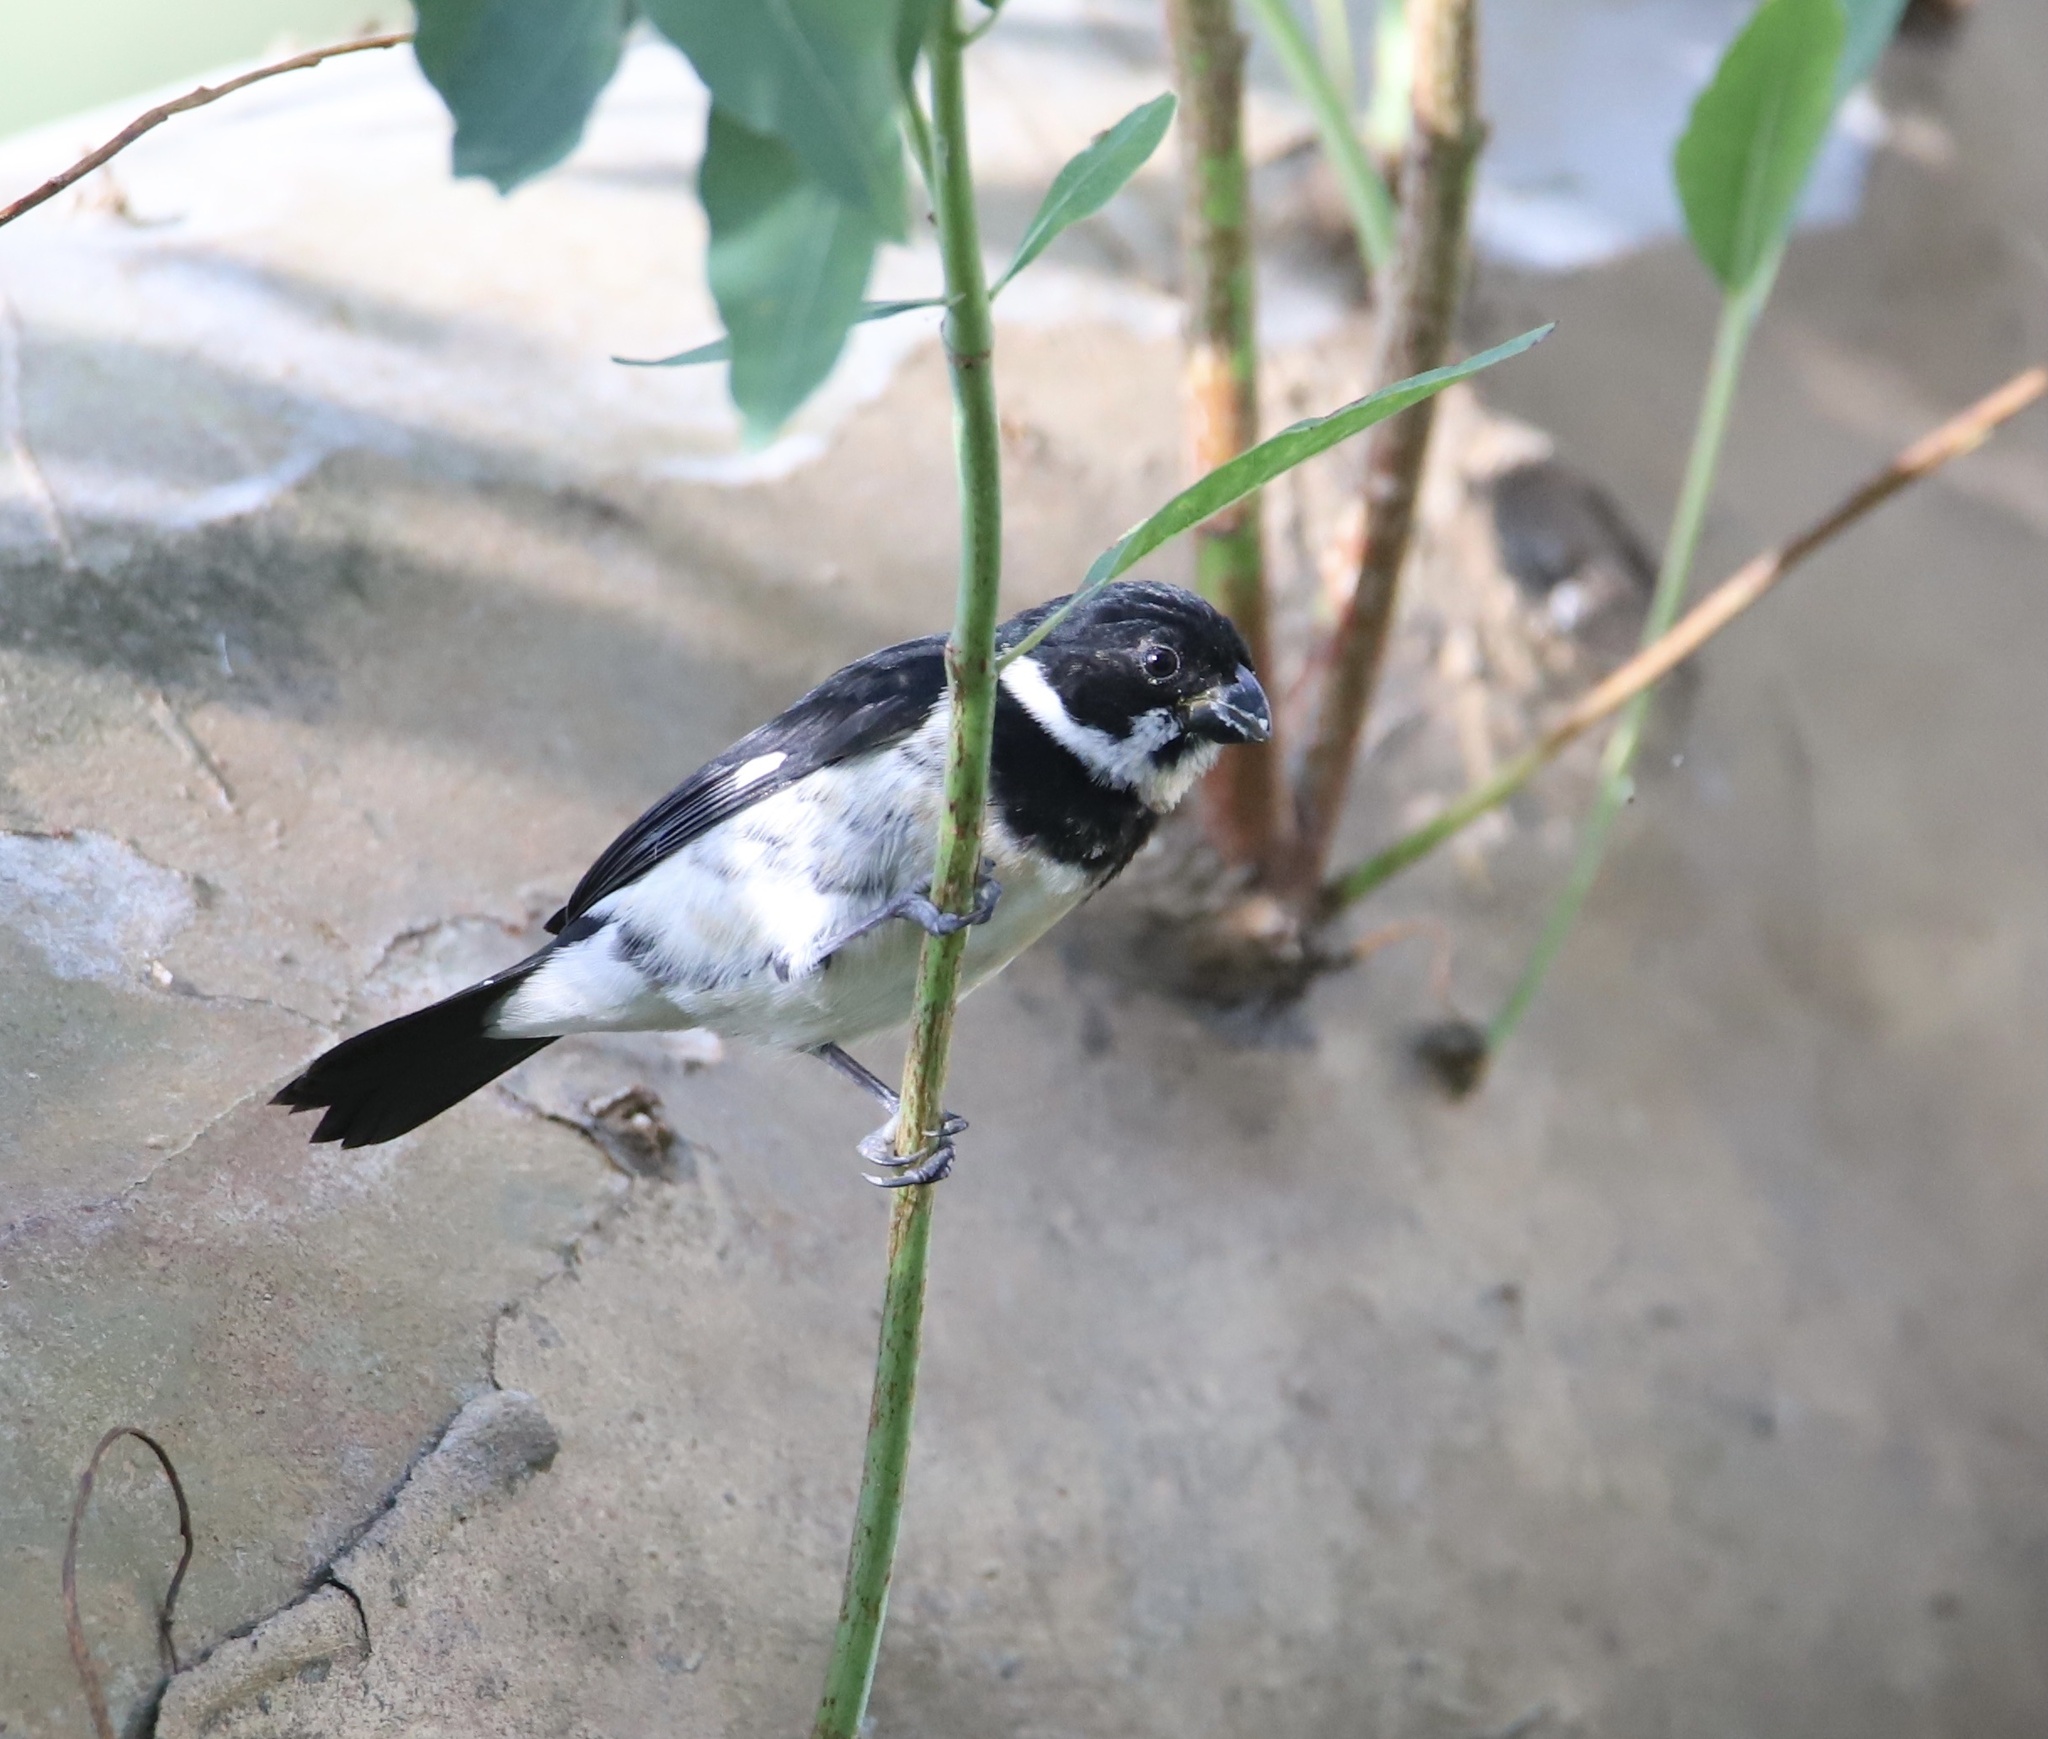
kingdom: Animalia
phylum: Chordata
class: Aves
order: Passeriformes
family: Thraupidae
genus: Sporophila
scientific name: Sporophila corvina
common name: Variable seedeater
